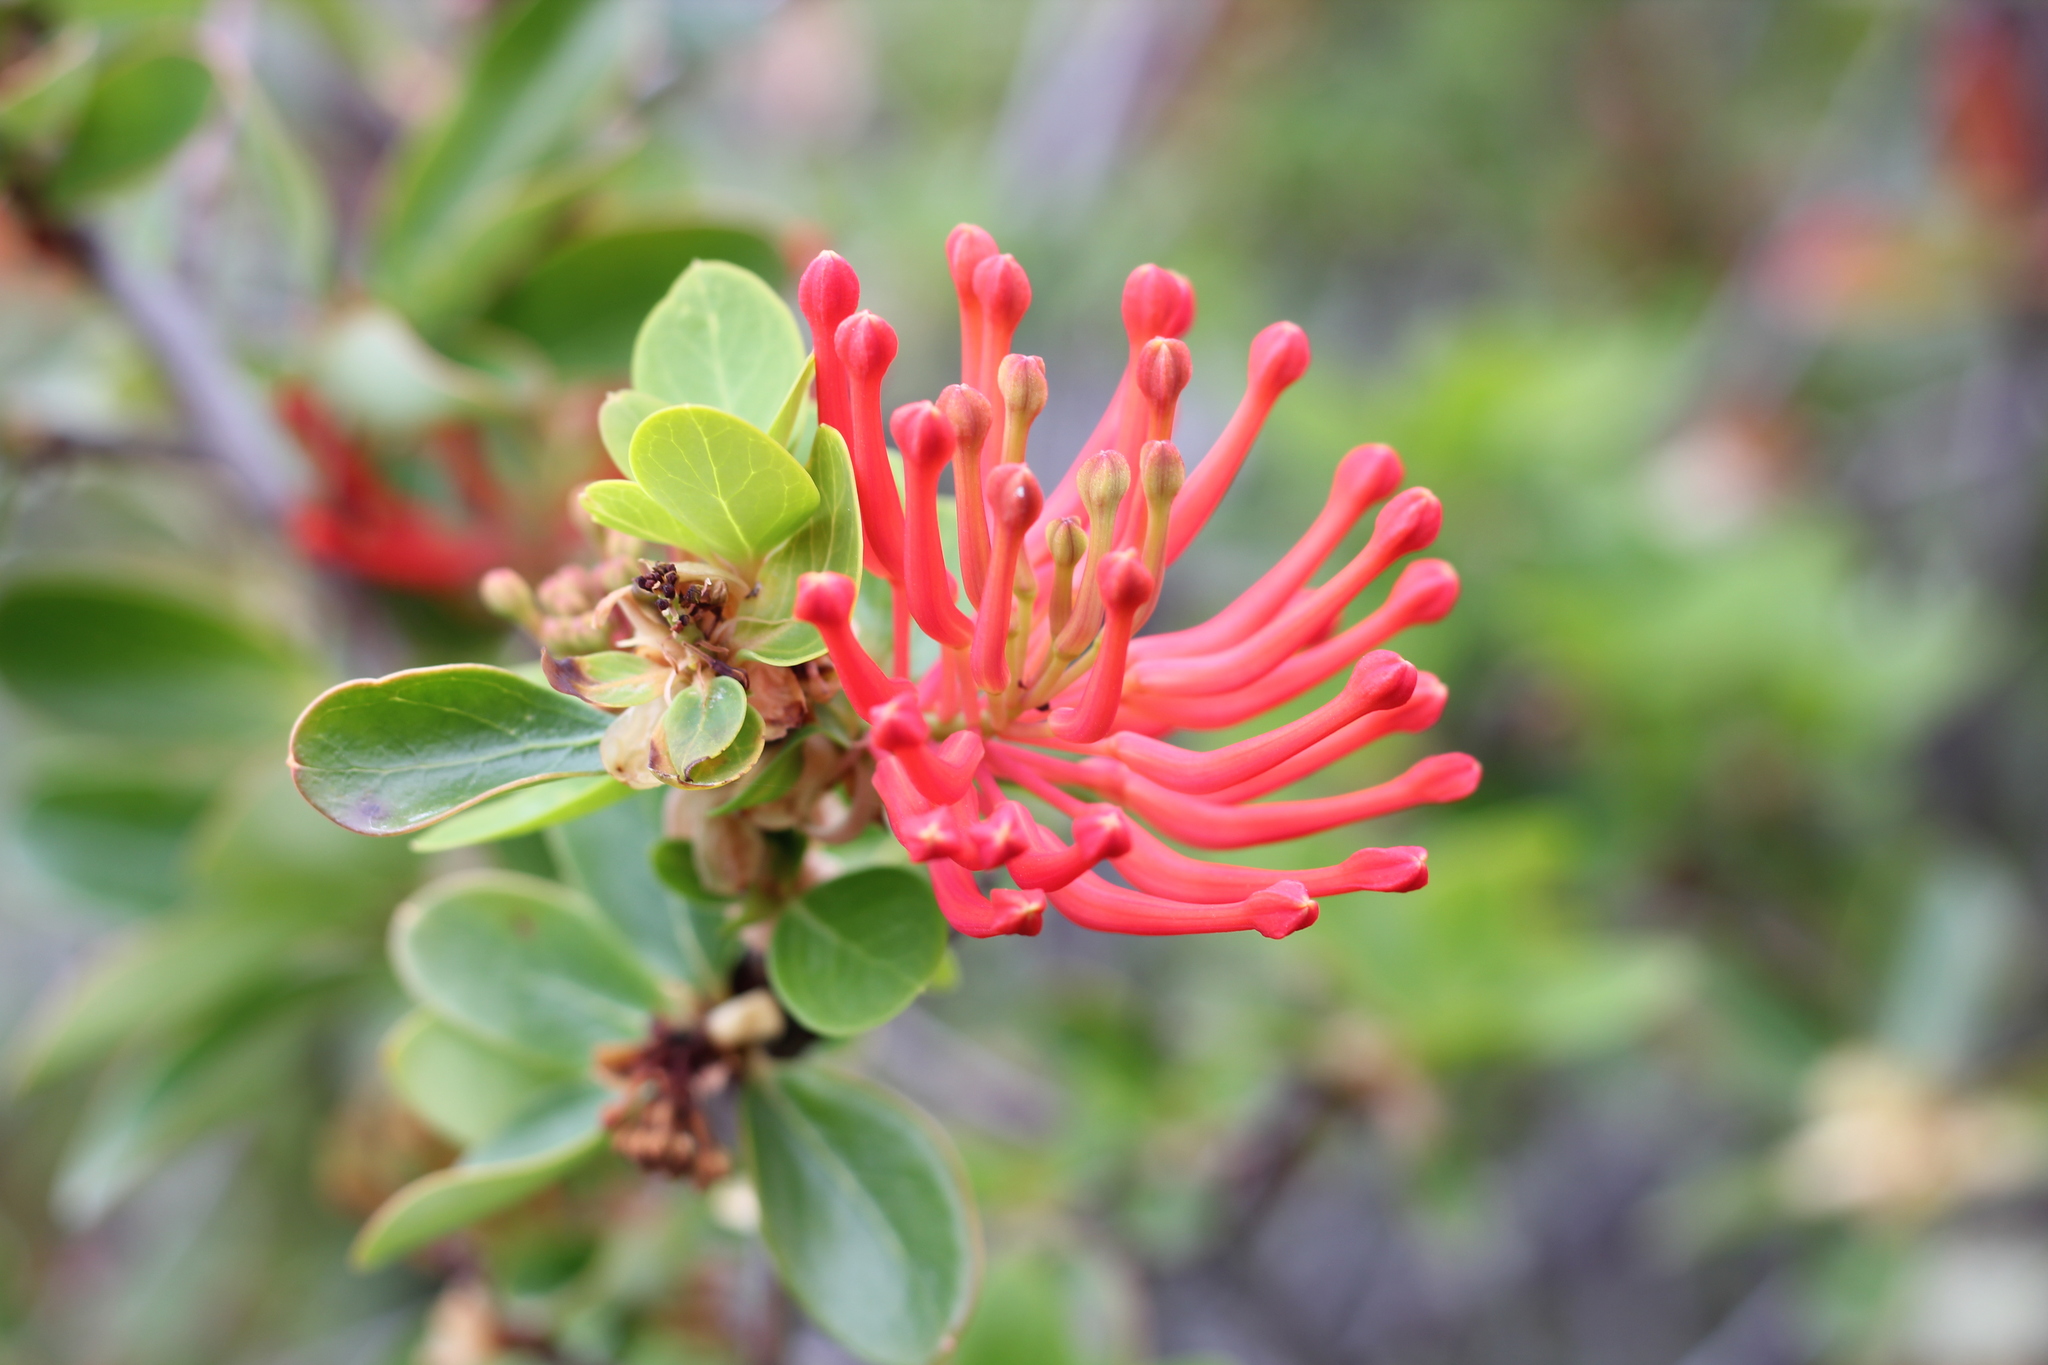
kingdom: Plantae
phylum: Tracheophyta
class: Magnoliopsida
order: Proteales
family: Proteaceae
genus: Embothrium
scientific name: Embothrium coccineum
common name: Chilean firebush
